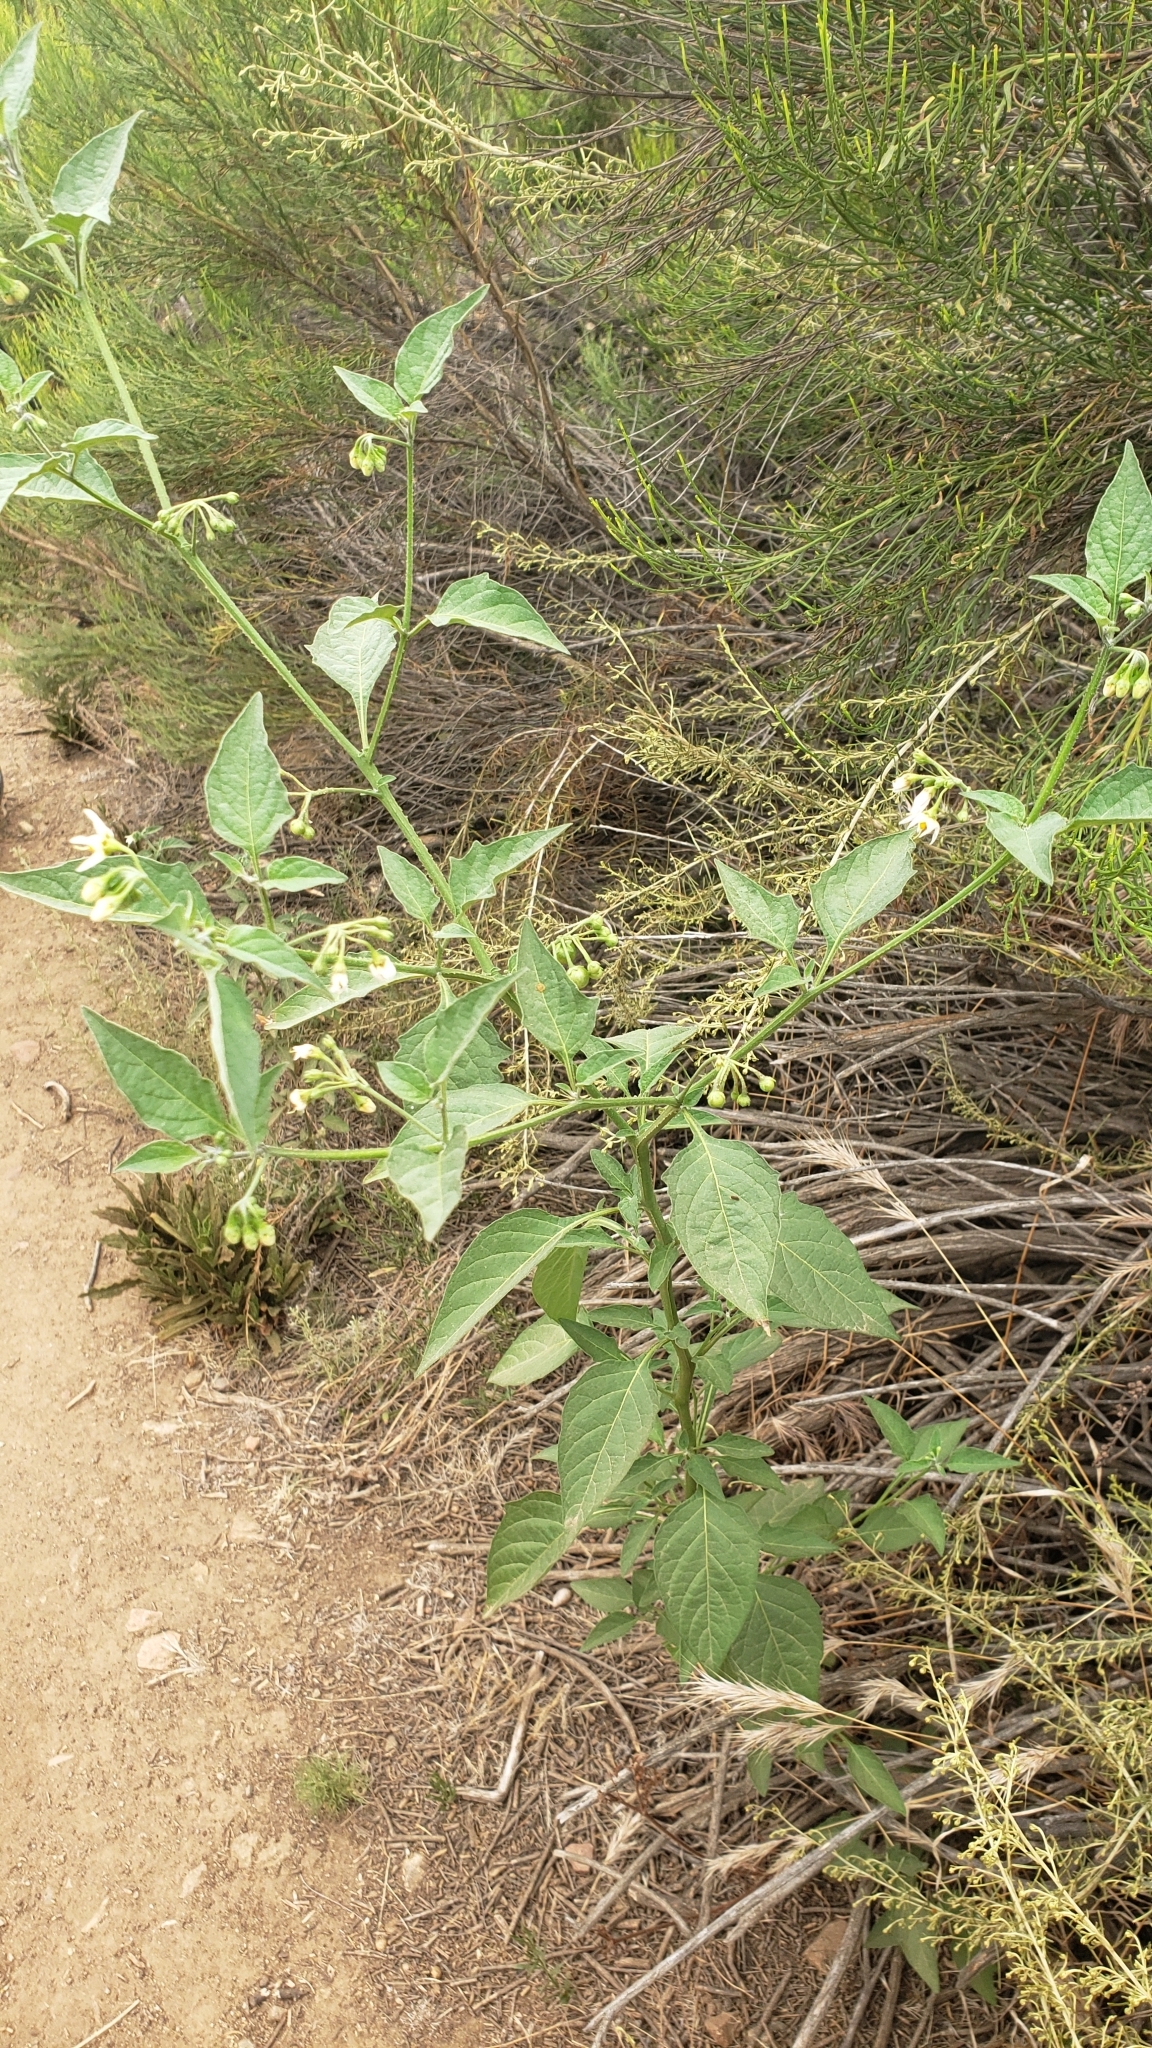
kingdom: Plantae
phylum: Tracheophyta
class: Magnoliopsida
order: Solanales
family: Solanaceae
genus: Solanum
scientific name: Solanum douglasii
